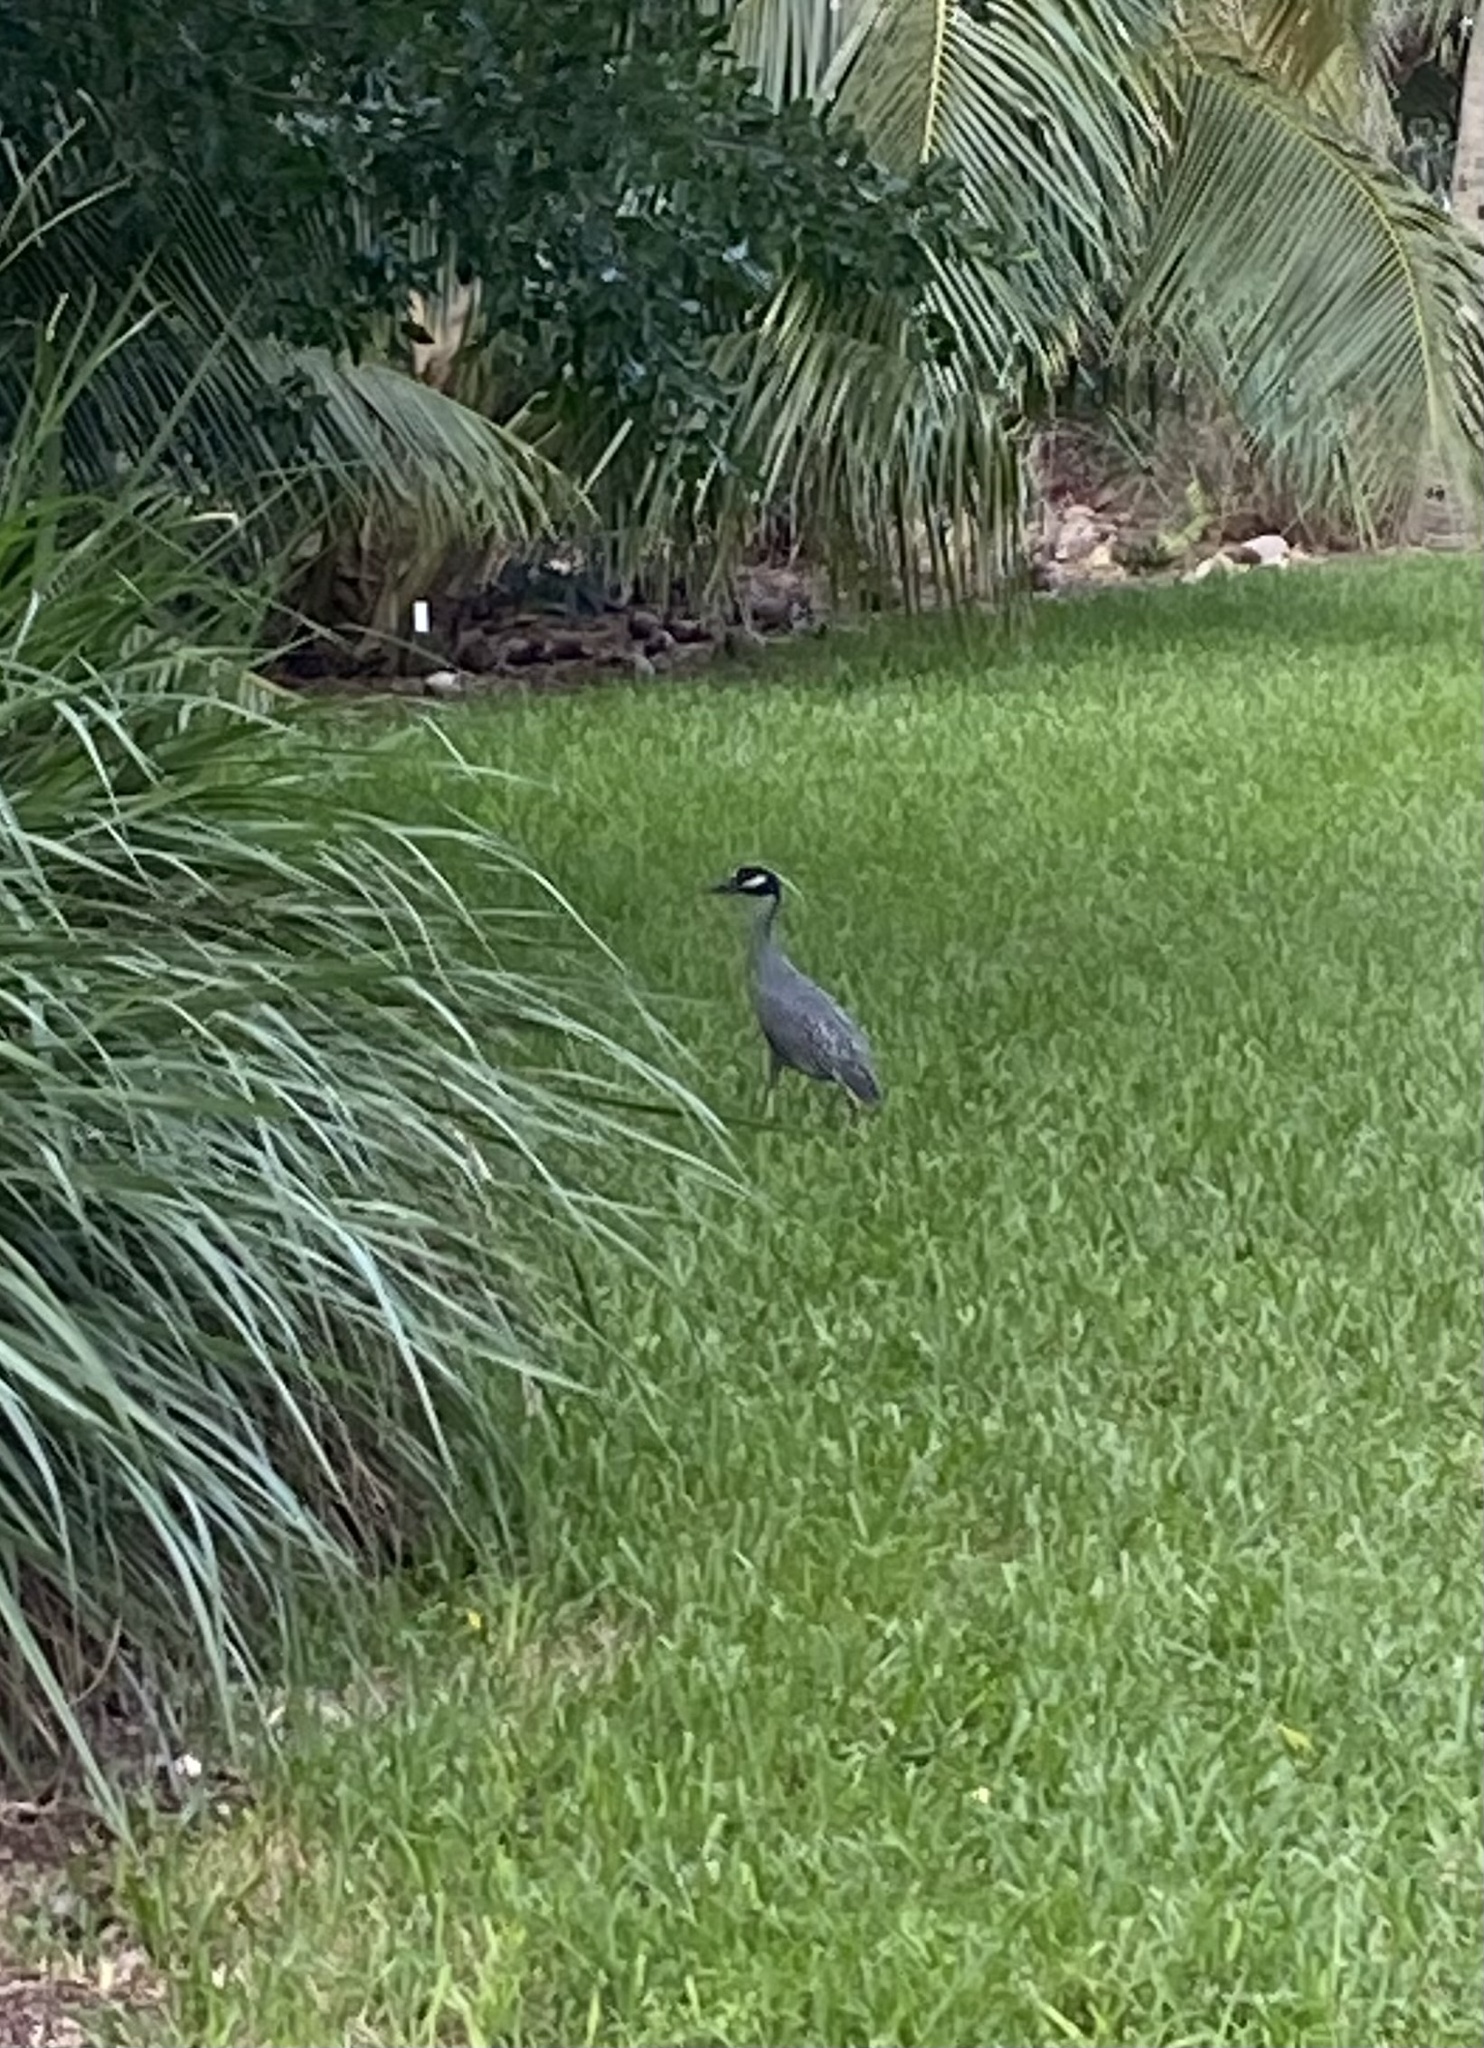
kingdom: Animalia
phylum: Chordata
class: Aves
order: Pelecaniformes
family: Ardeidae
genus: Nyctanassa
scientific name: Nyctanassa violacea
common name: Yellow-crowned night heron
